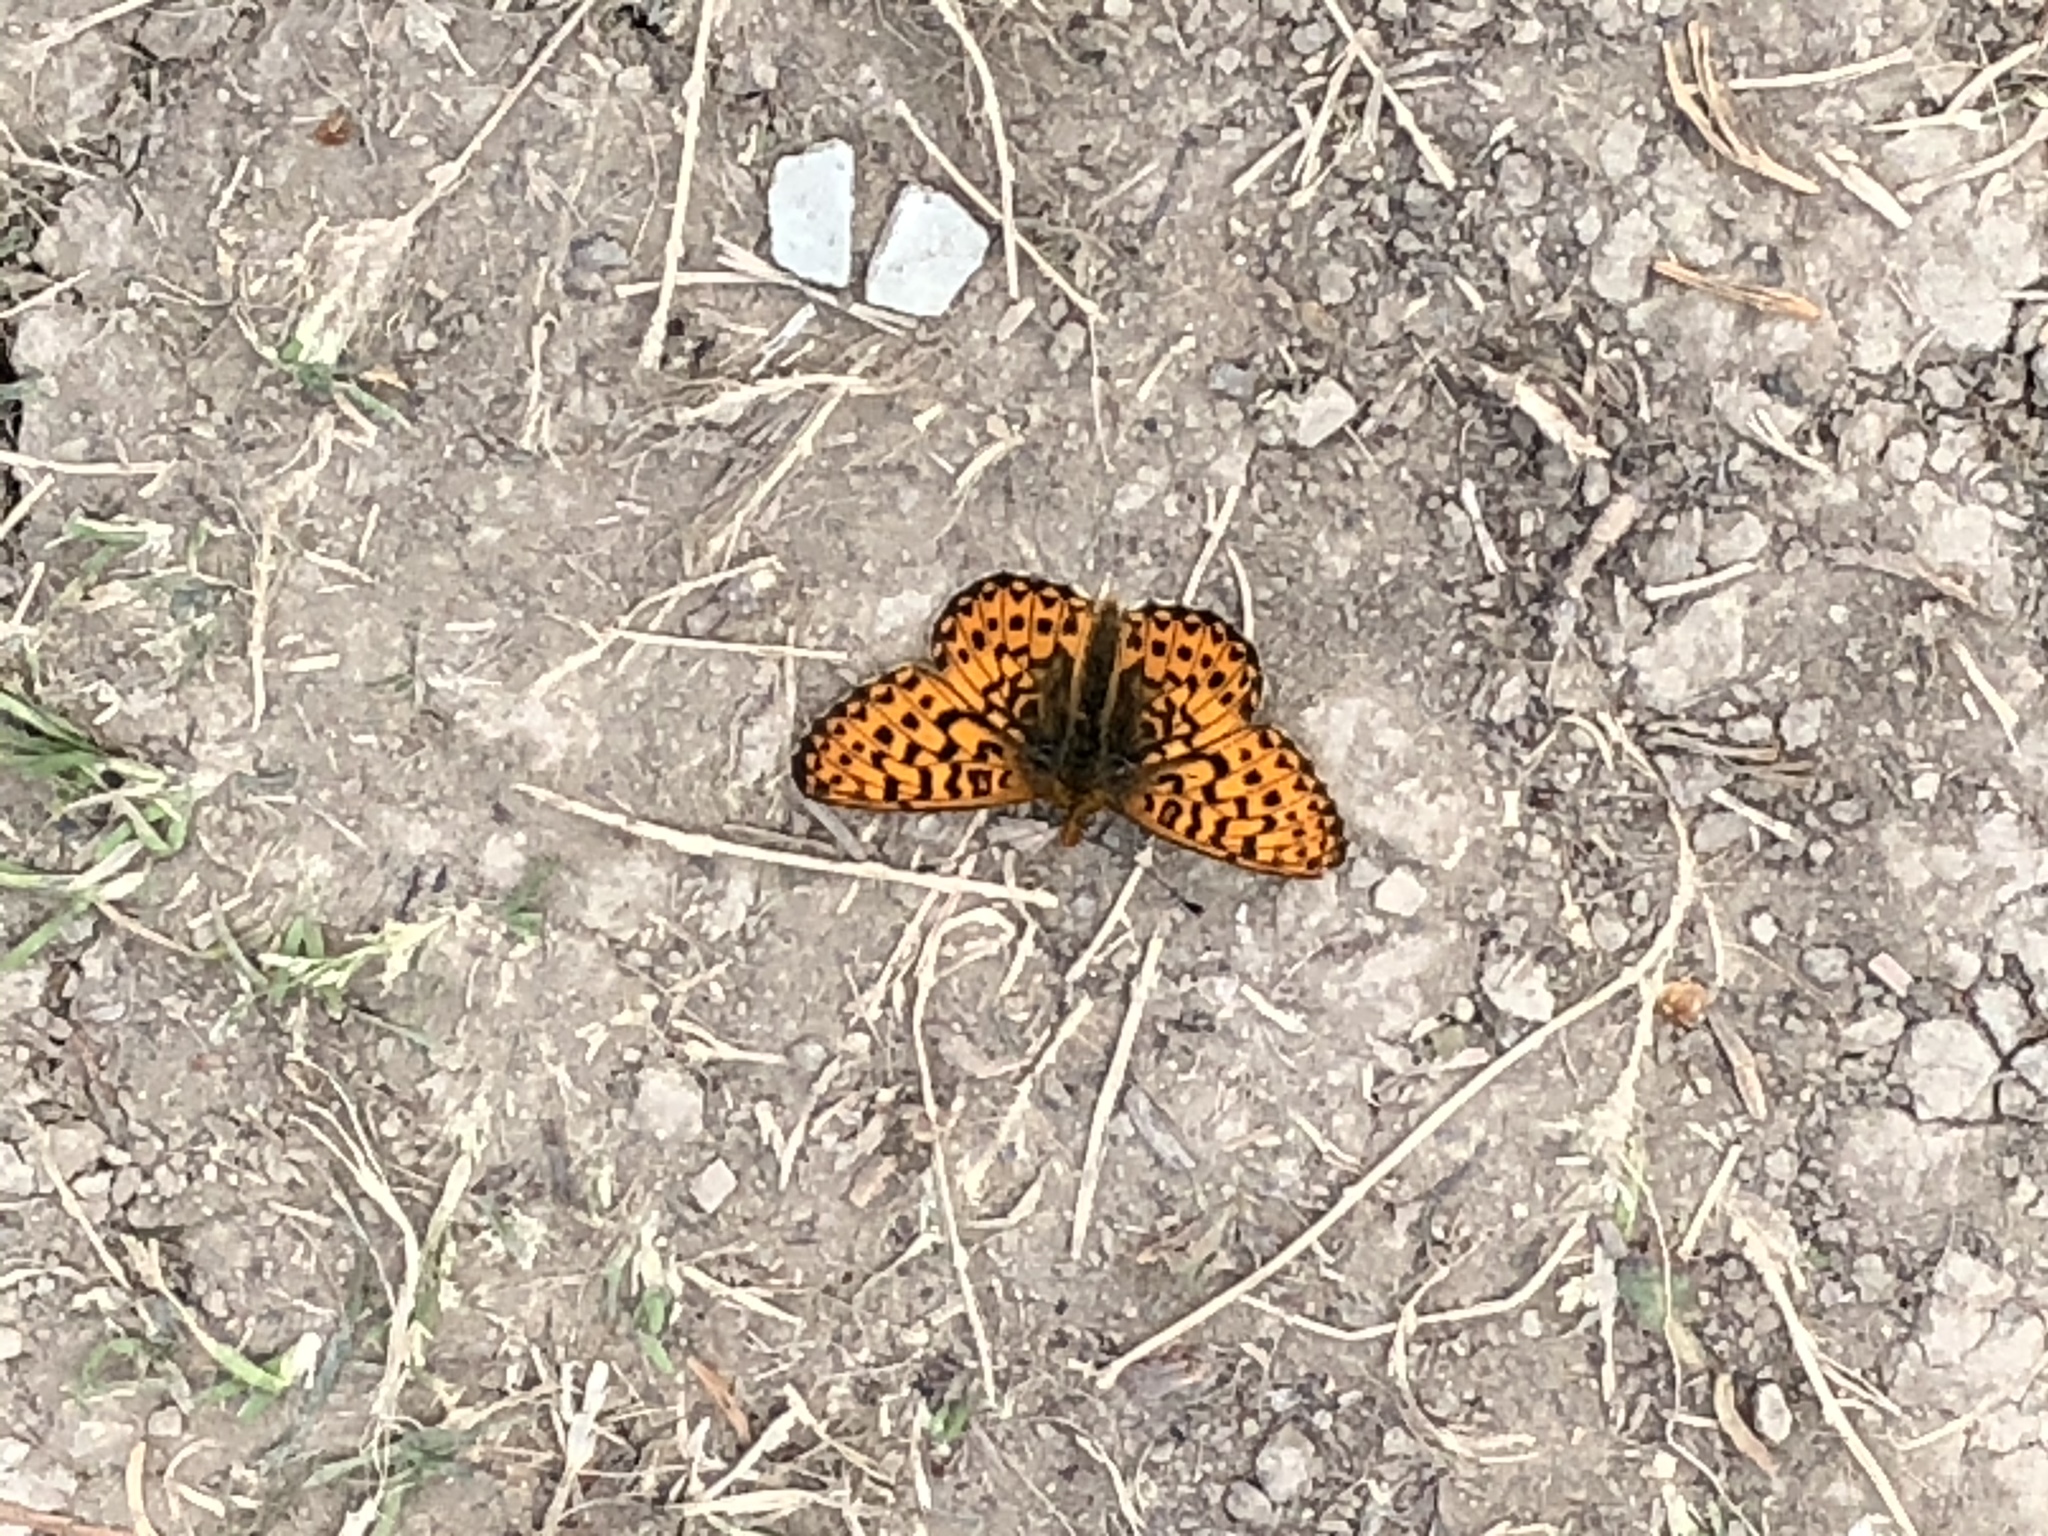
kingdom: Animalia
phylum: Arthropoda
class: Insecta
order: Lepidoptera
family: Nymphalidae
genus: Clossiana
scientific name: Clossiana euphrosyne
